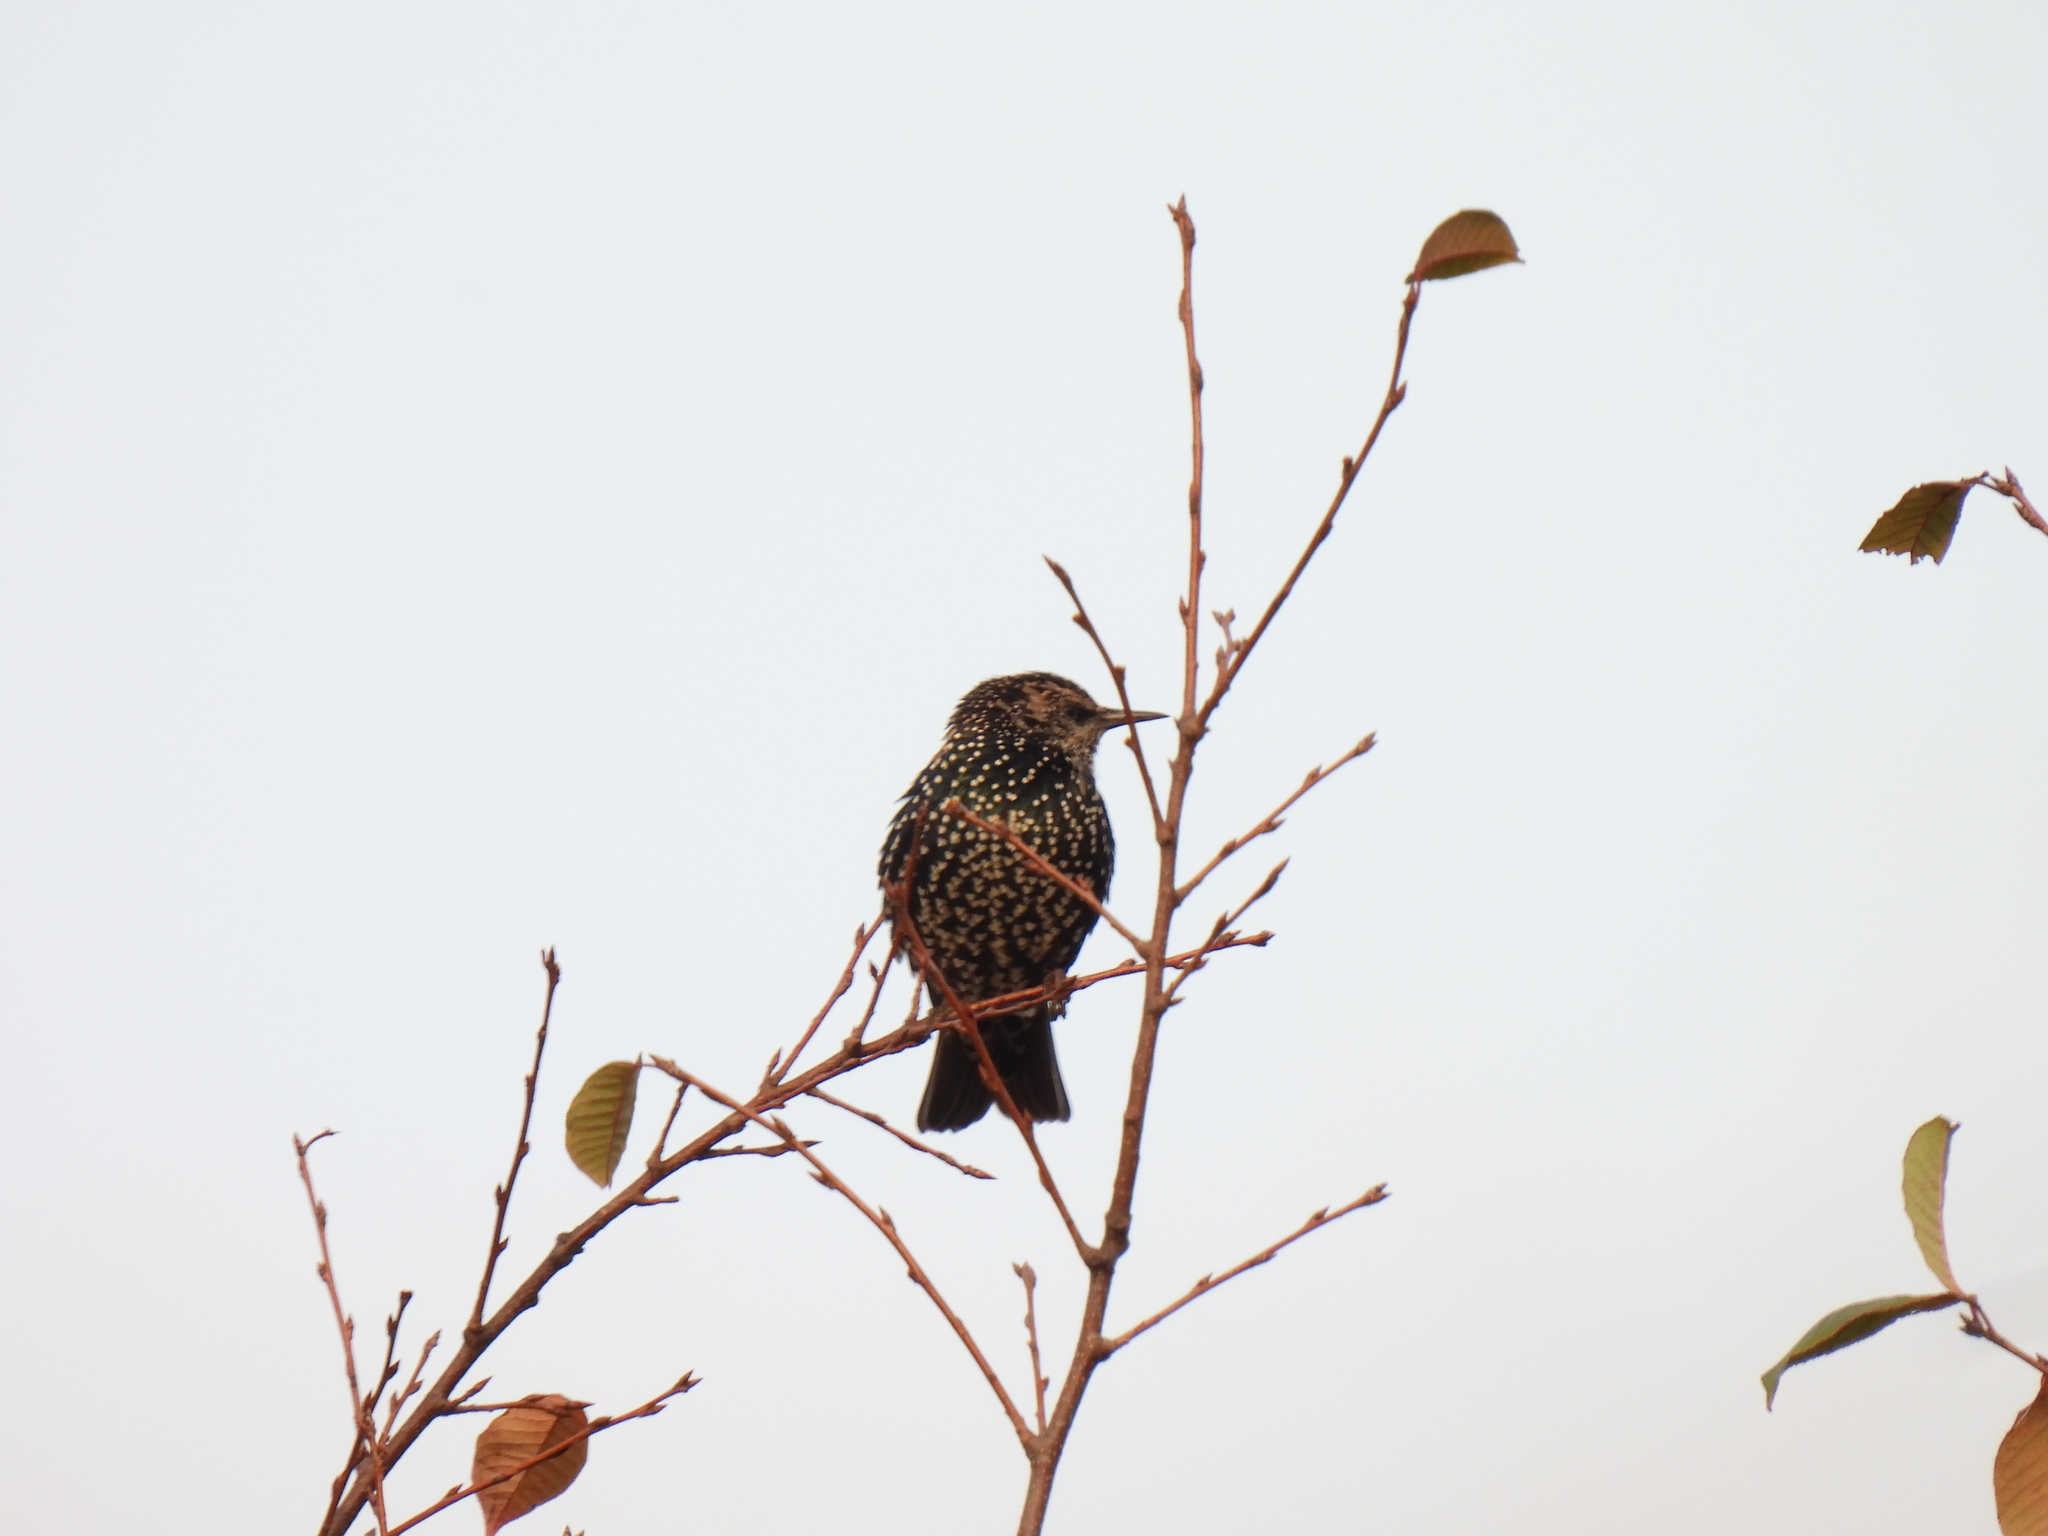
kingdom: Animalia
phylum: Chordata
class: Aves
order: Passeriformes
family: Sturnidae
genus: Sturnus
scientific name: Sturnus vulgaris
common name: Common starling
